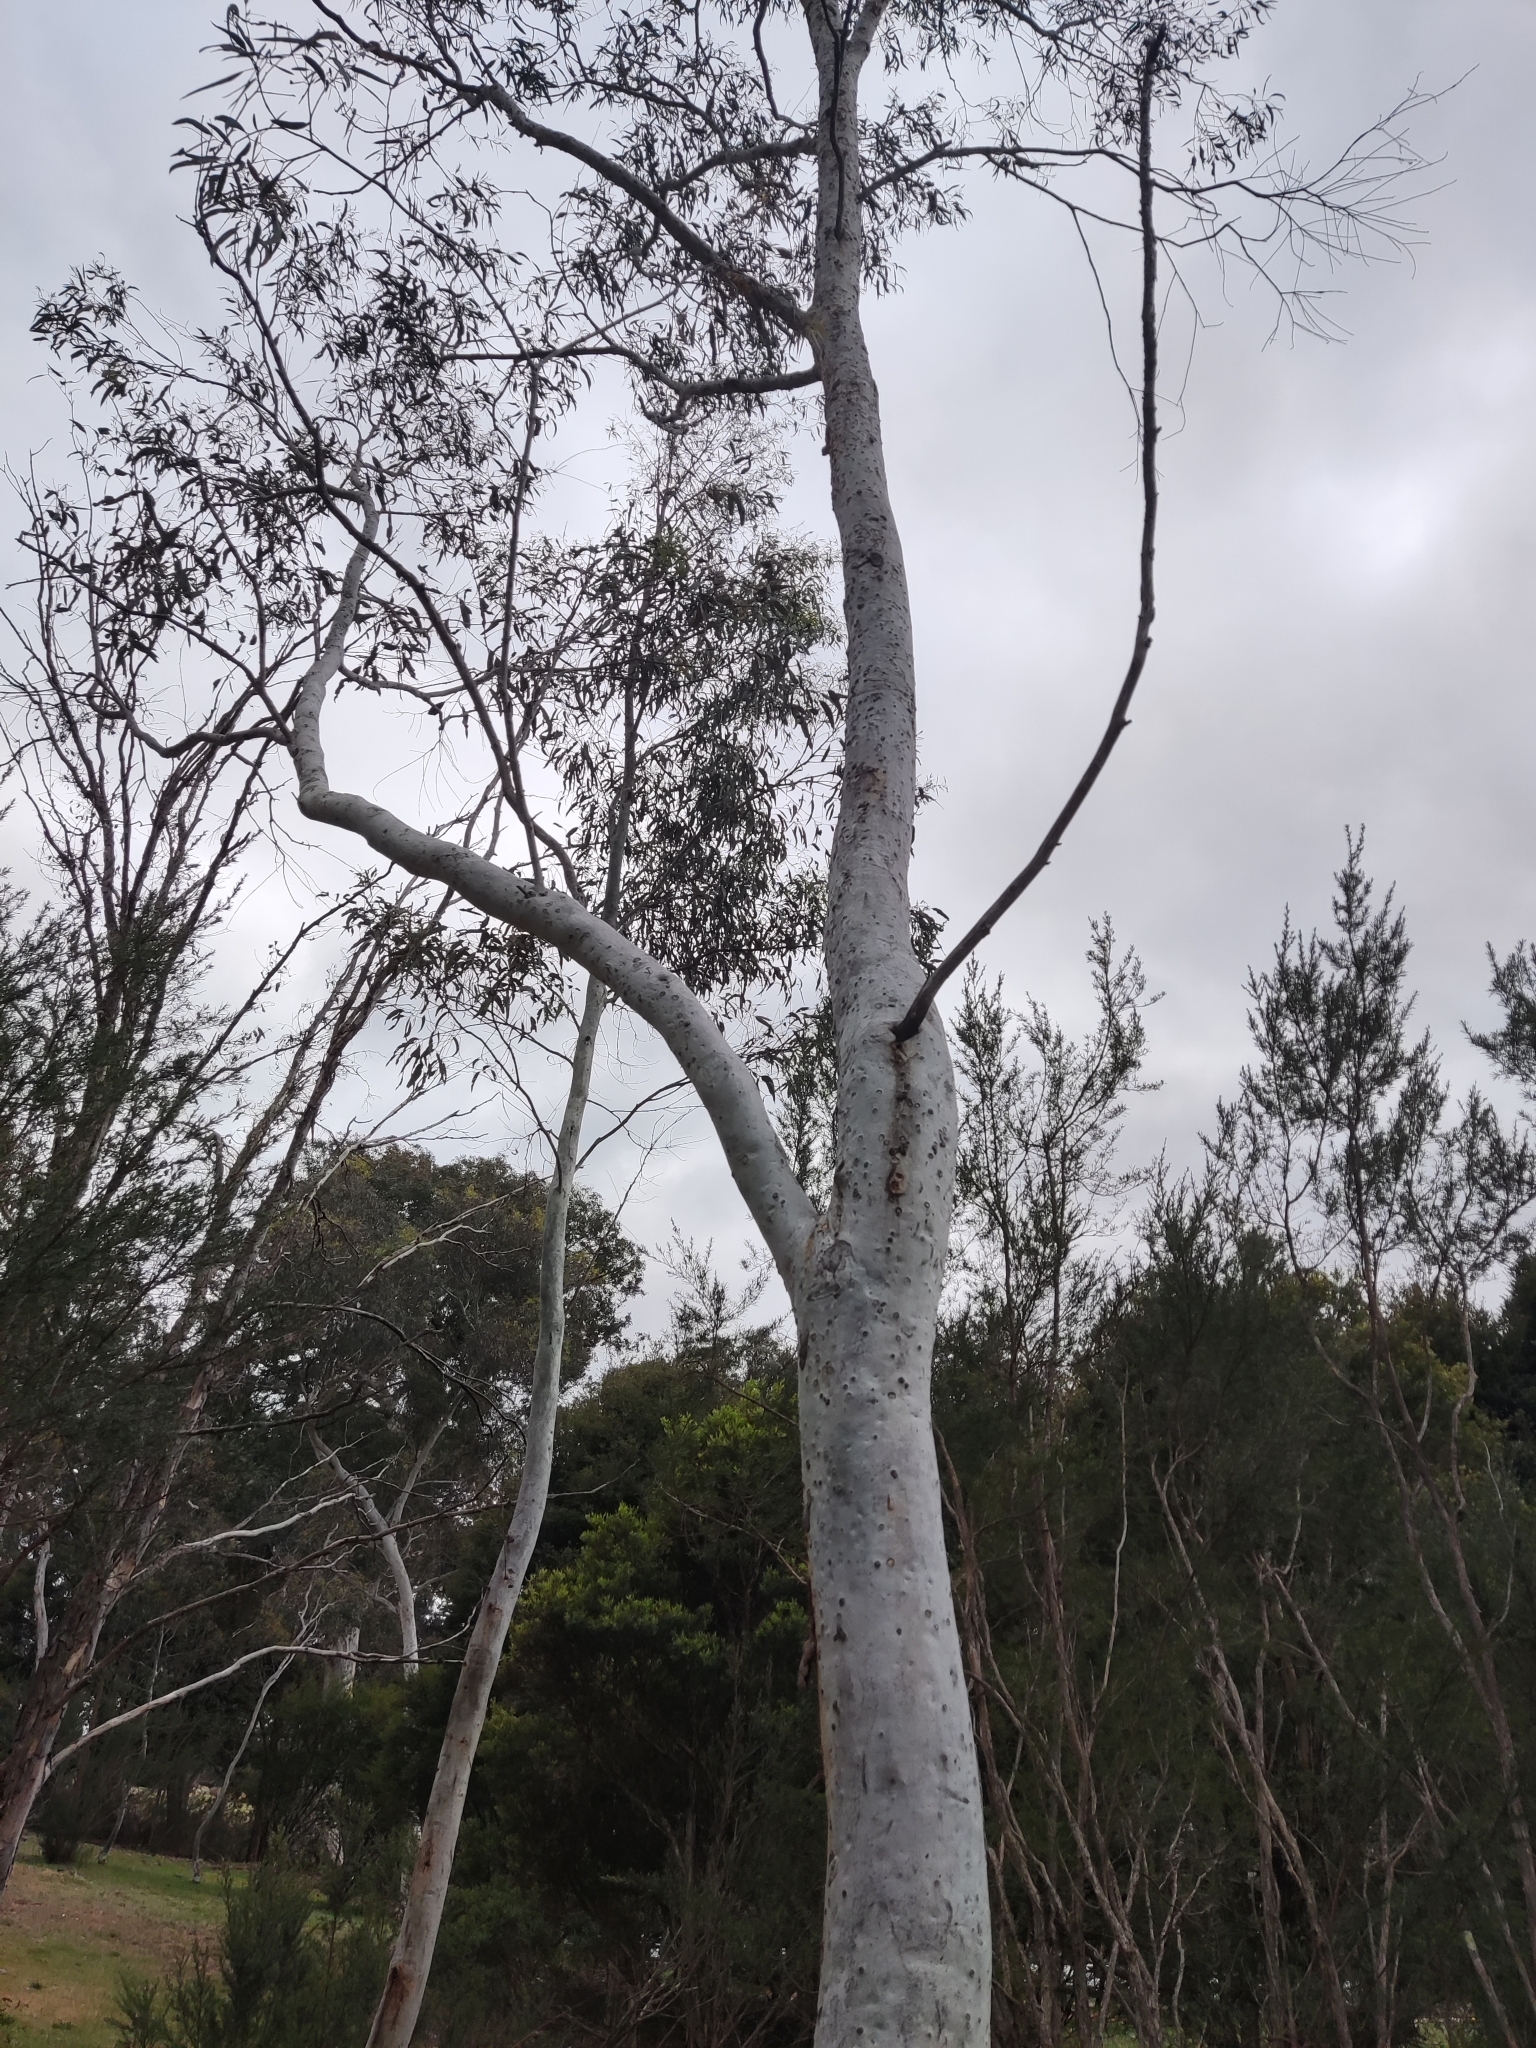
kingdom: Plantae
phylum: Tracheophyta
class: Magnoliopsida
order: Myrtales
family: Myrtaceae
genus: Eucalyptus
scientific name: Eucalyptus mannifera
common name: Manna gum
